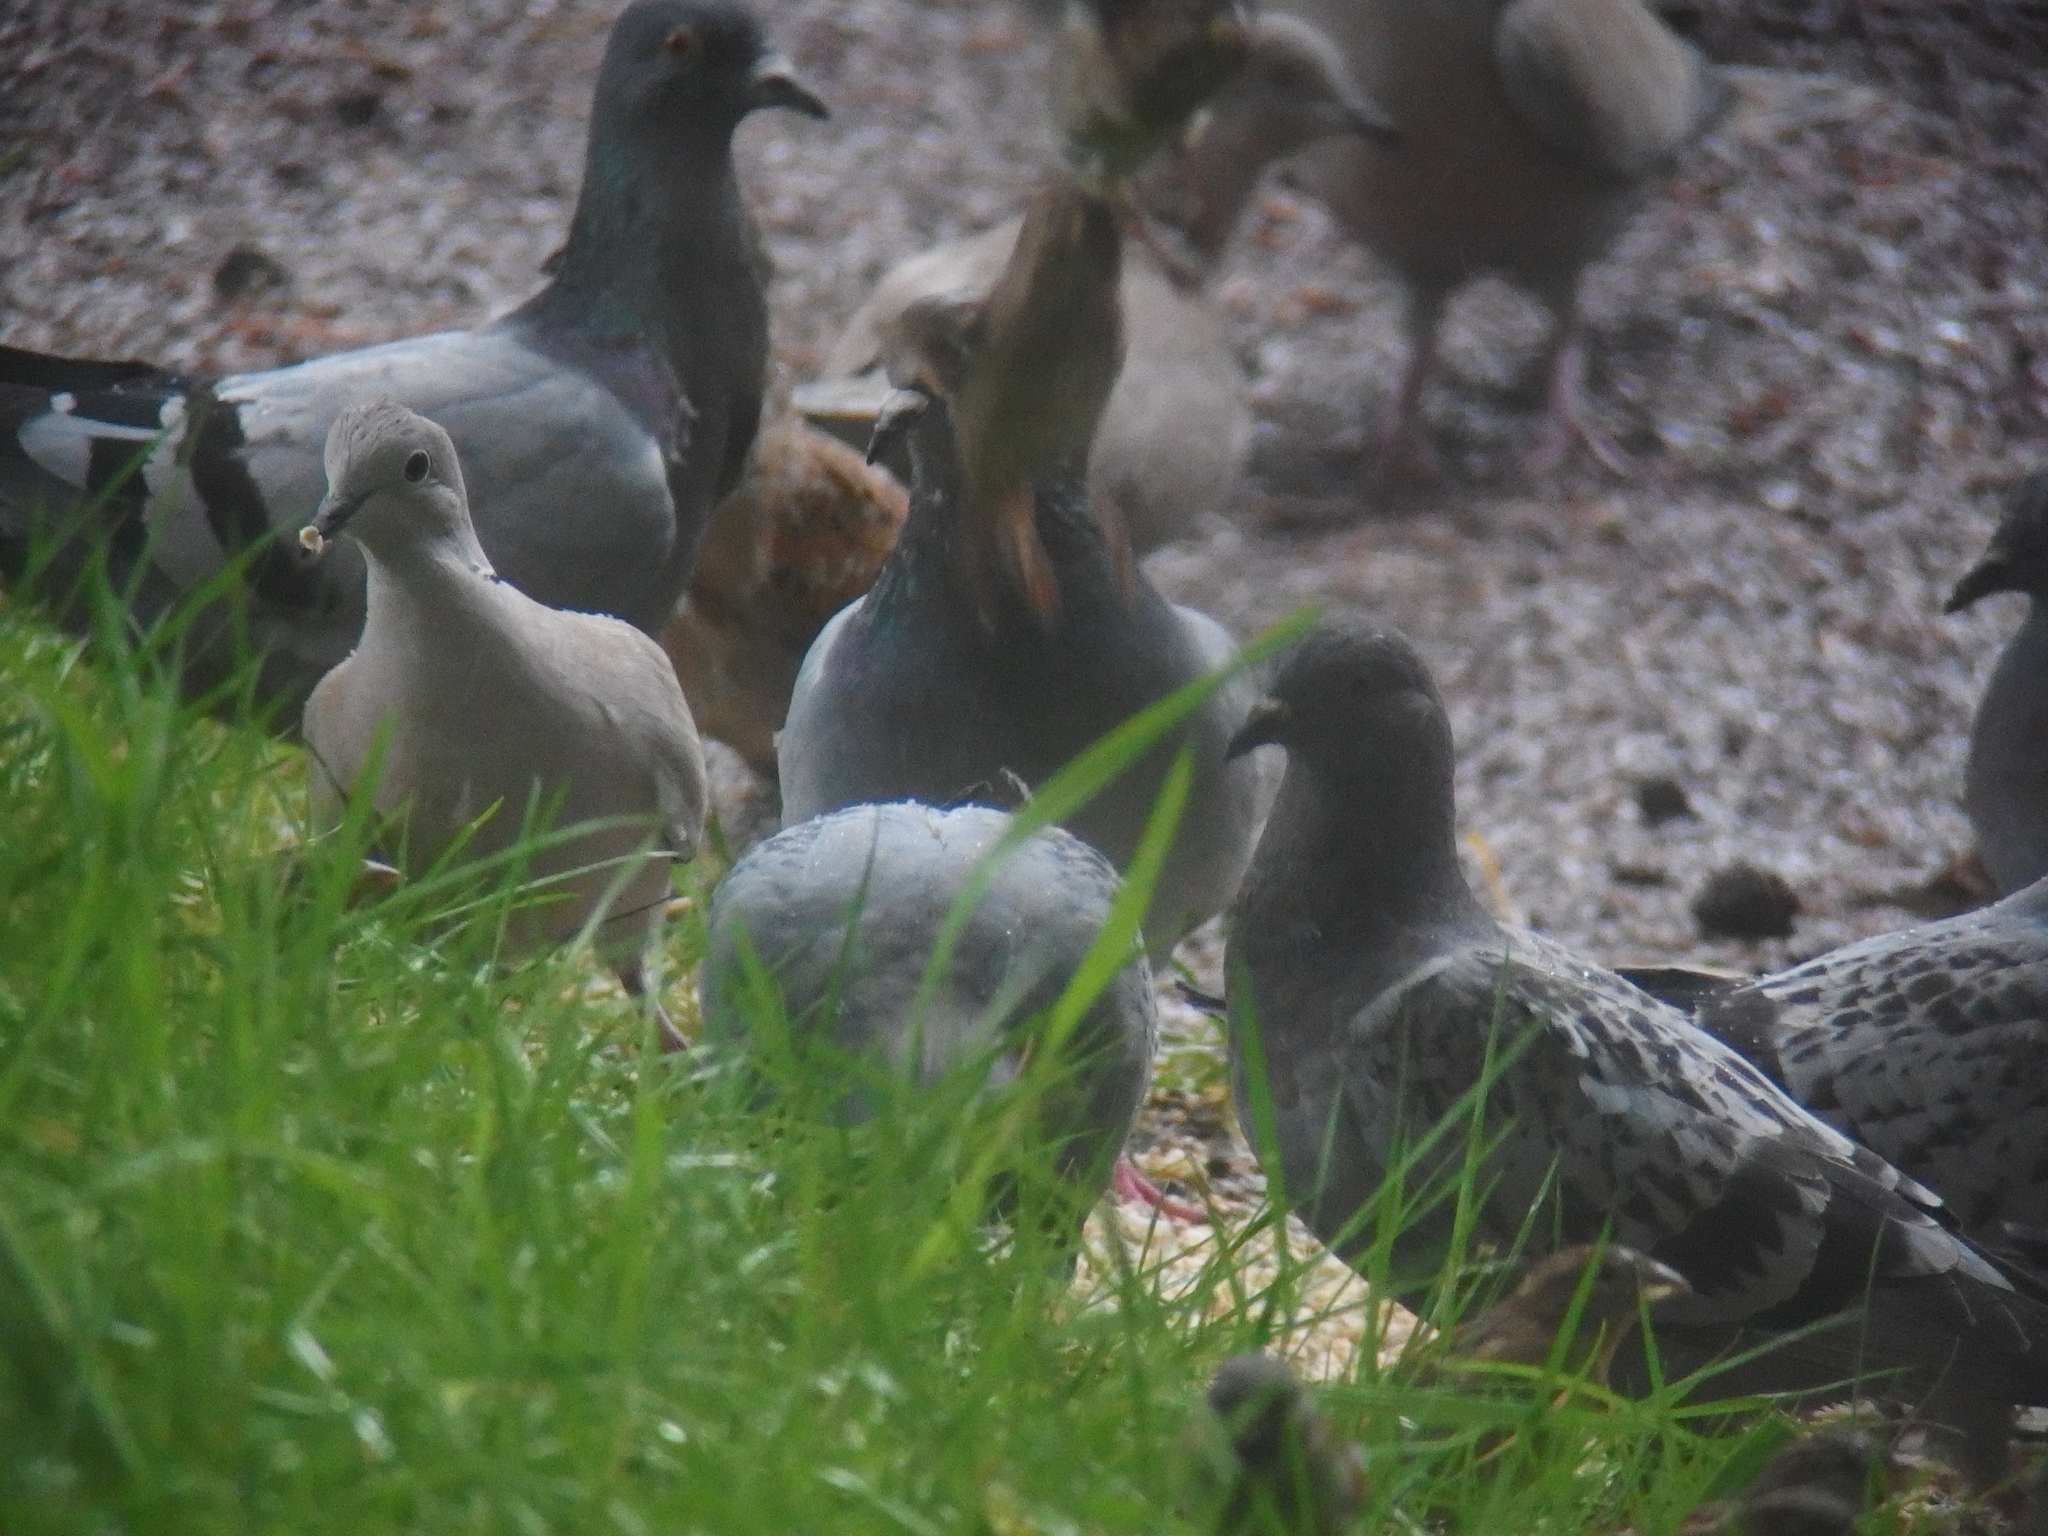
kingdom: Animalia
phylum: Chordata
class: Aves
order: Passeriformes
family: Passeridae
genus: Passer
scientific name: Passer domesticus
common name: House sparrow
